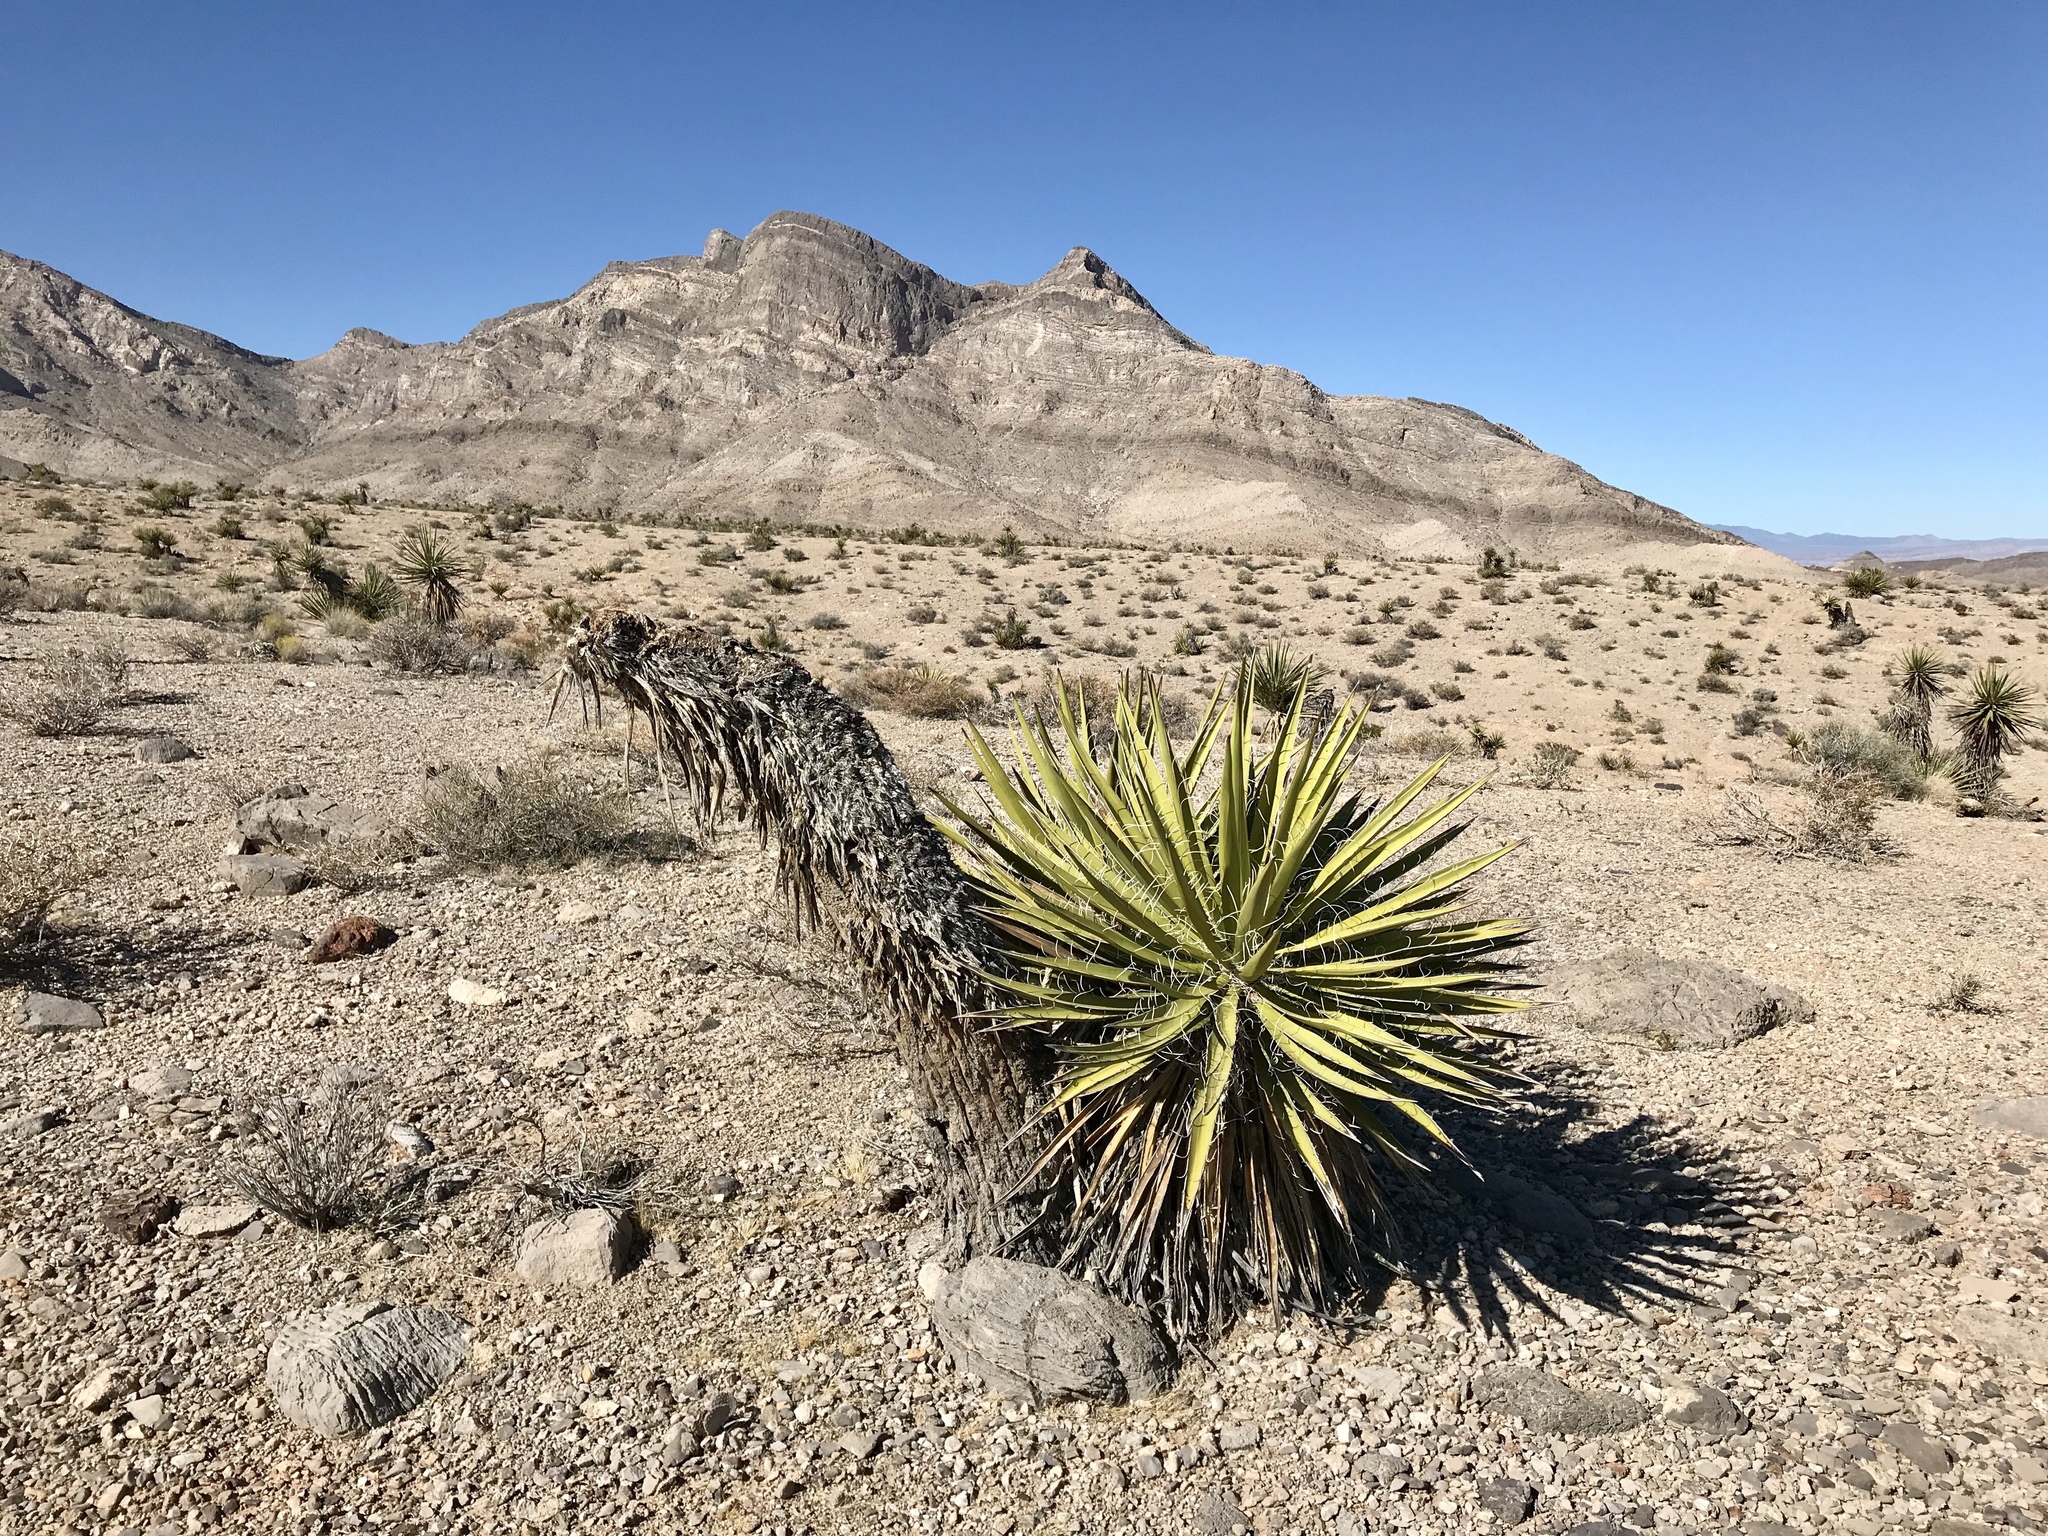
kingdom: Plantae
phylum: Tracheophyta
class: Liliopsida
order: Asparagales
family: Asparagaceae
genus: Yucca
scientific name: Yucca schidigera
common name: Mojave yucca
